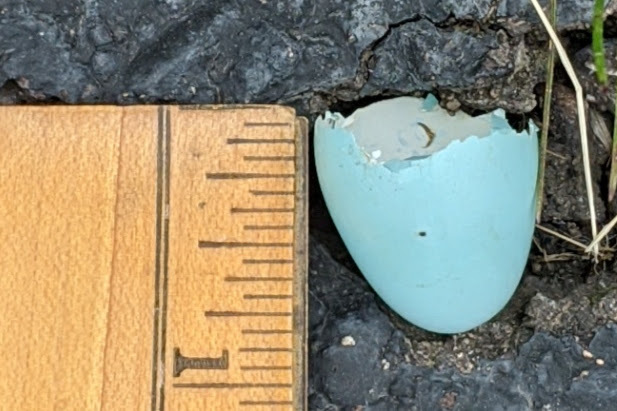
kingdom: Animalia
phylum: Chordata
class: Aves
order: Passeriformes
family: Turdidae
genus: Turdus
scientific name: Turdus migratorius
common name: American robin
